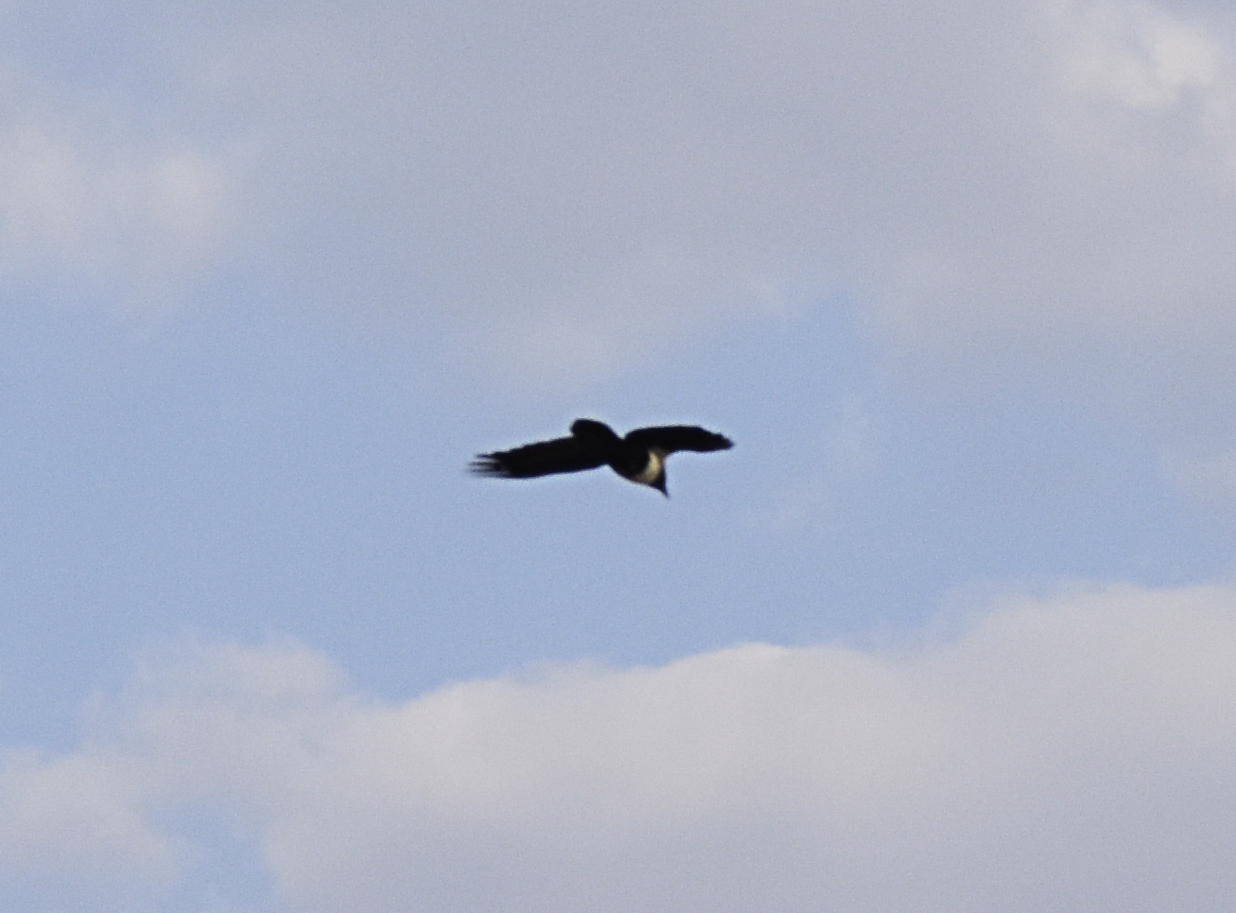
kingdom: Animalia
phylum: Chordata
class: Aves
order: Passeriformes
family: Corvidae
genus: Corvus
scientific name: Corvus albus
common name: Pied crow
